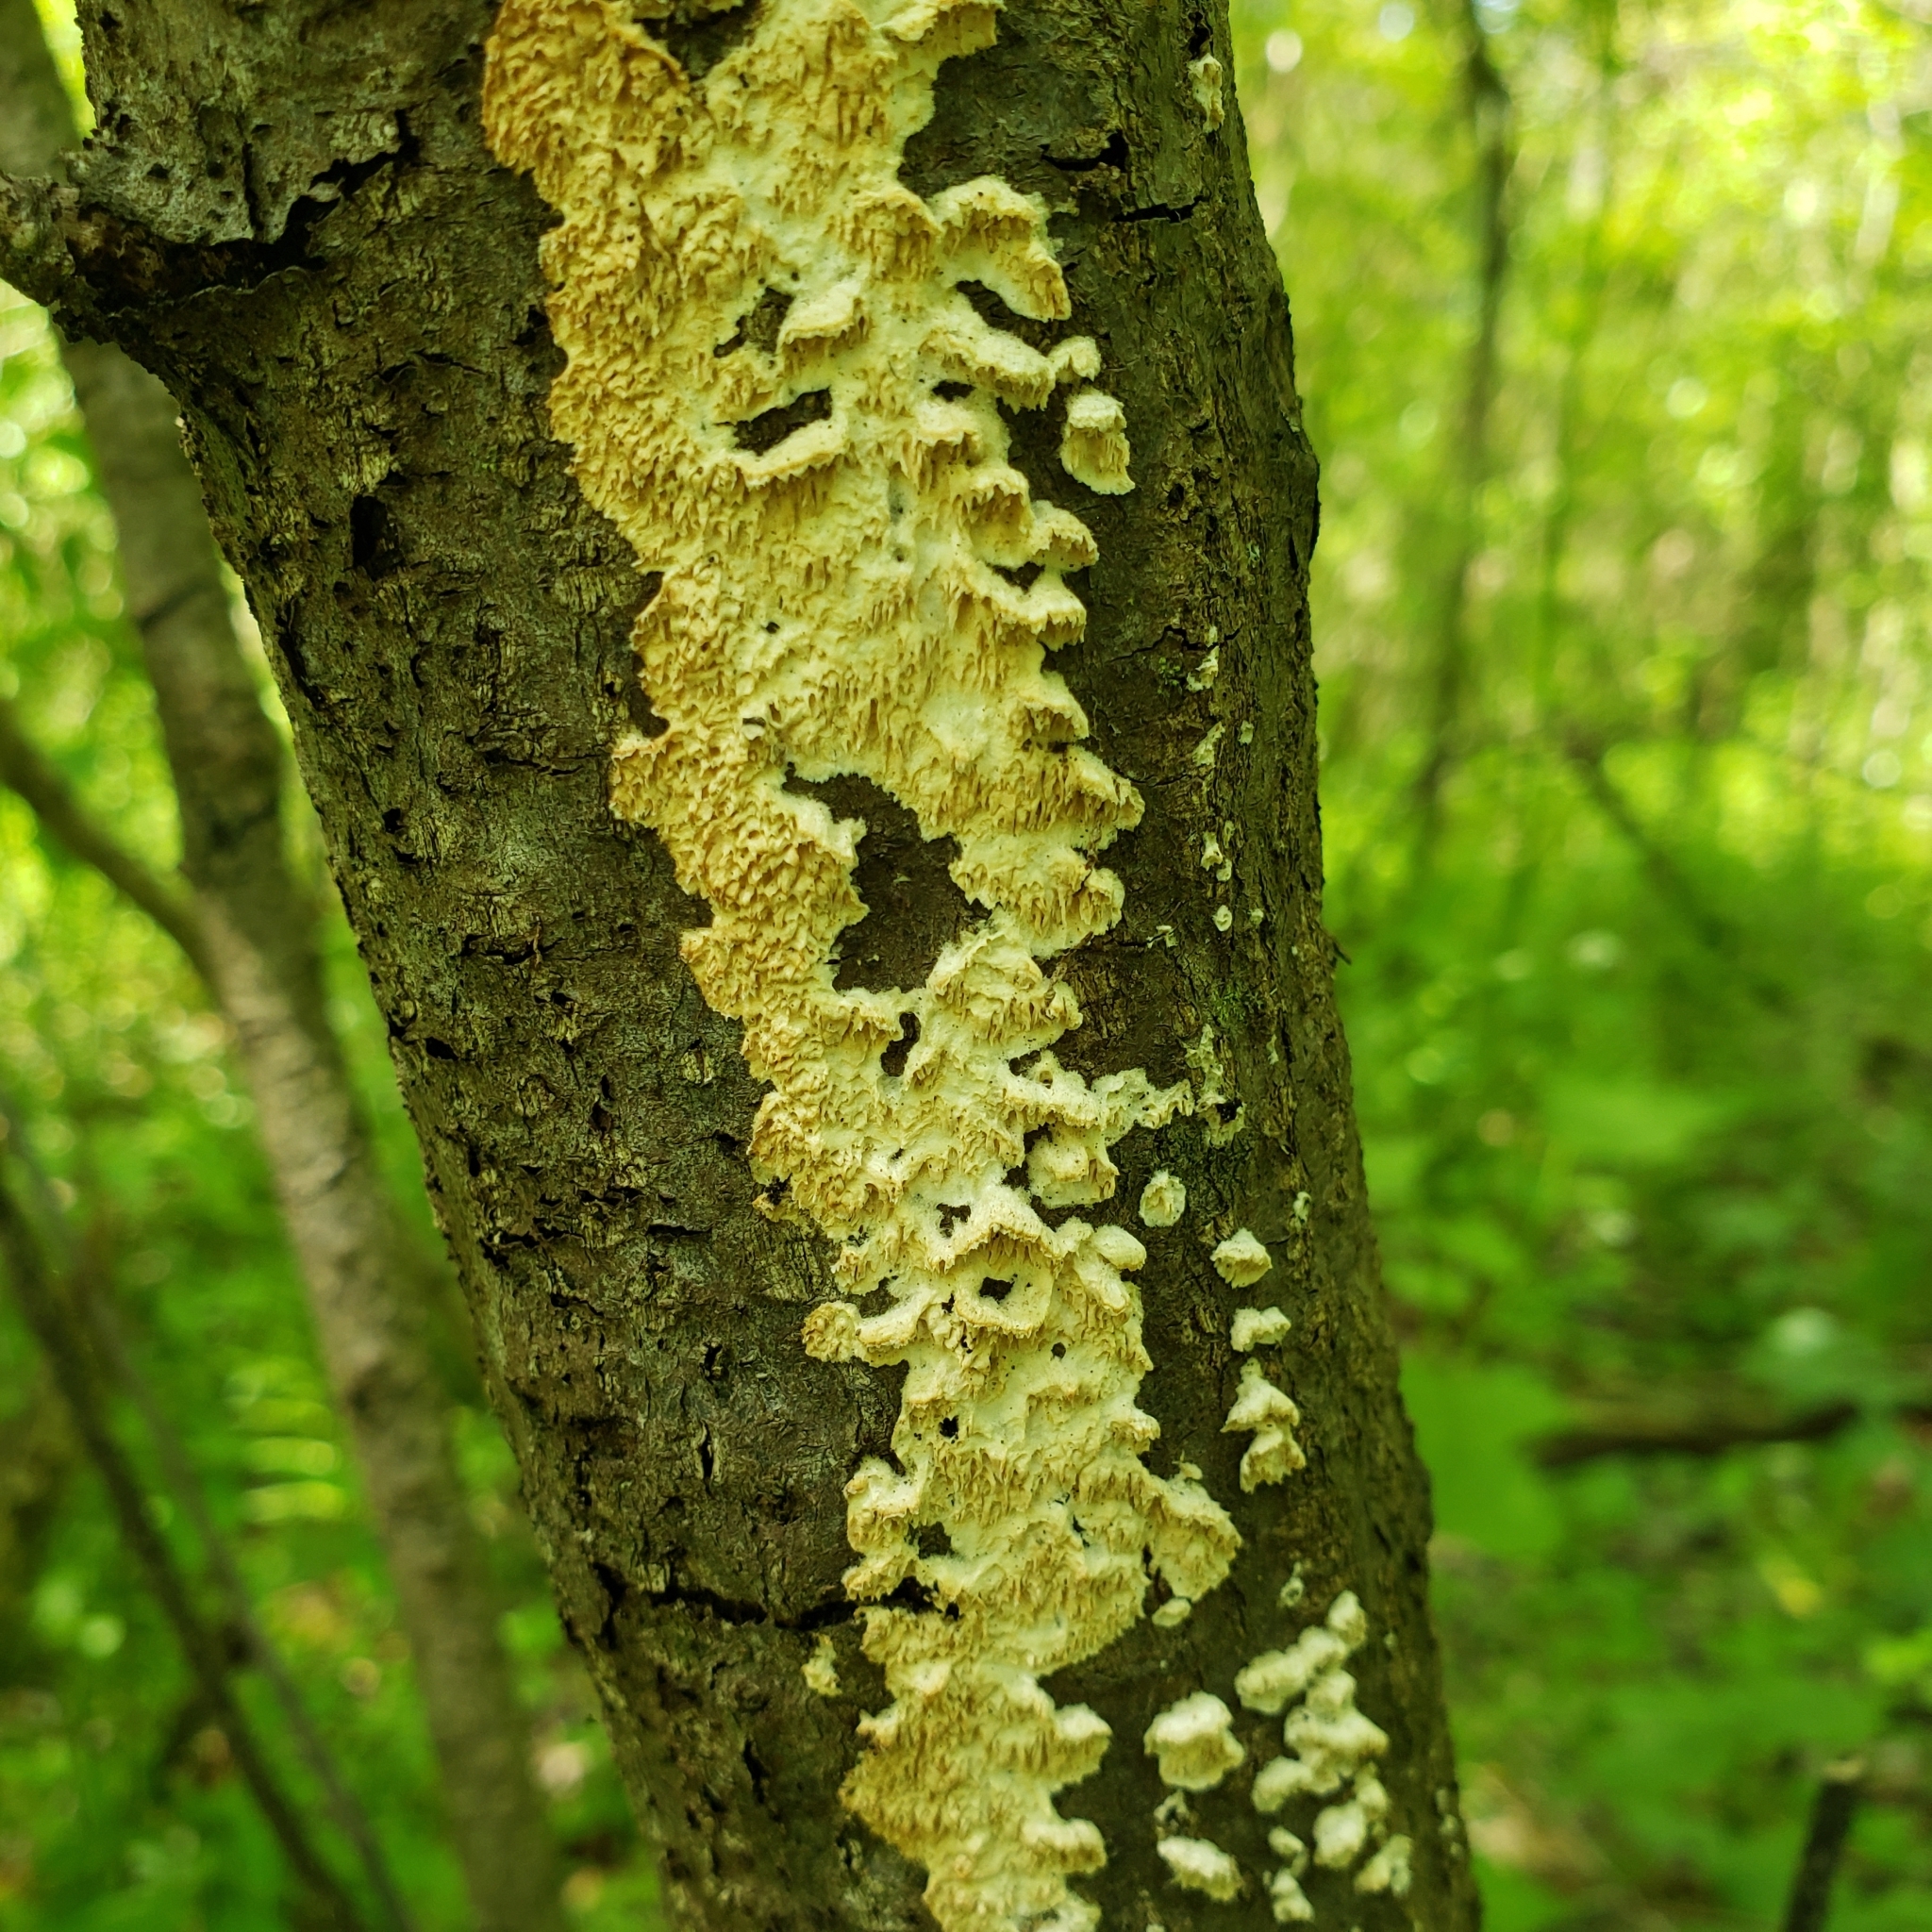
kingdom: Fungi
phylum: Basidiomycota
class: Agaricomycetes
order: Polyporales
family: Irpicaceae
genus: Irpex
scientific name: Irpex lacteus
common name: Milk-white toothed polypore
